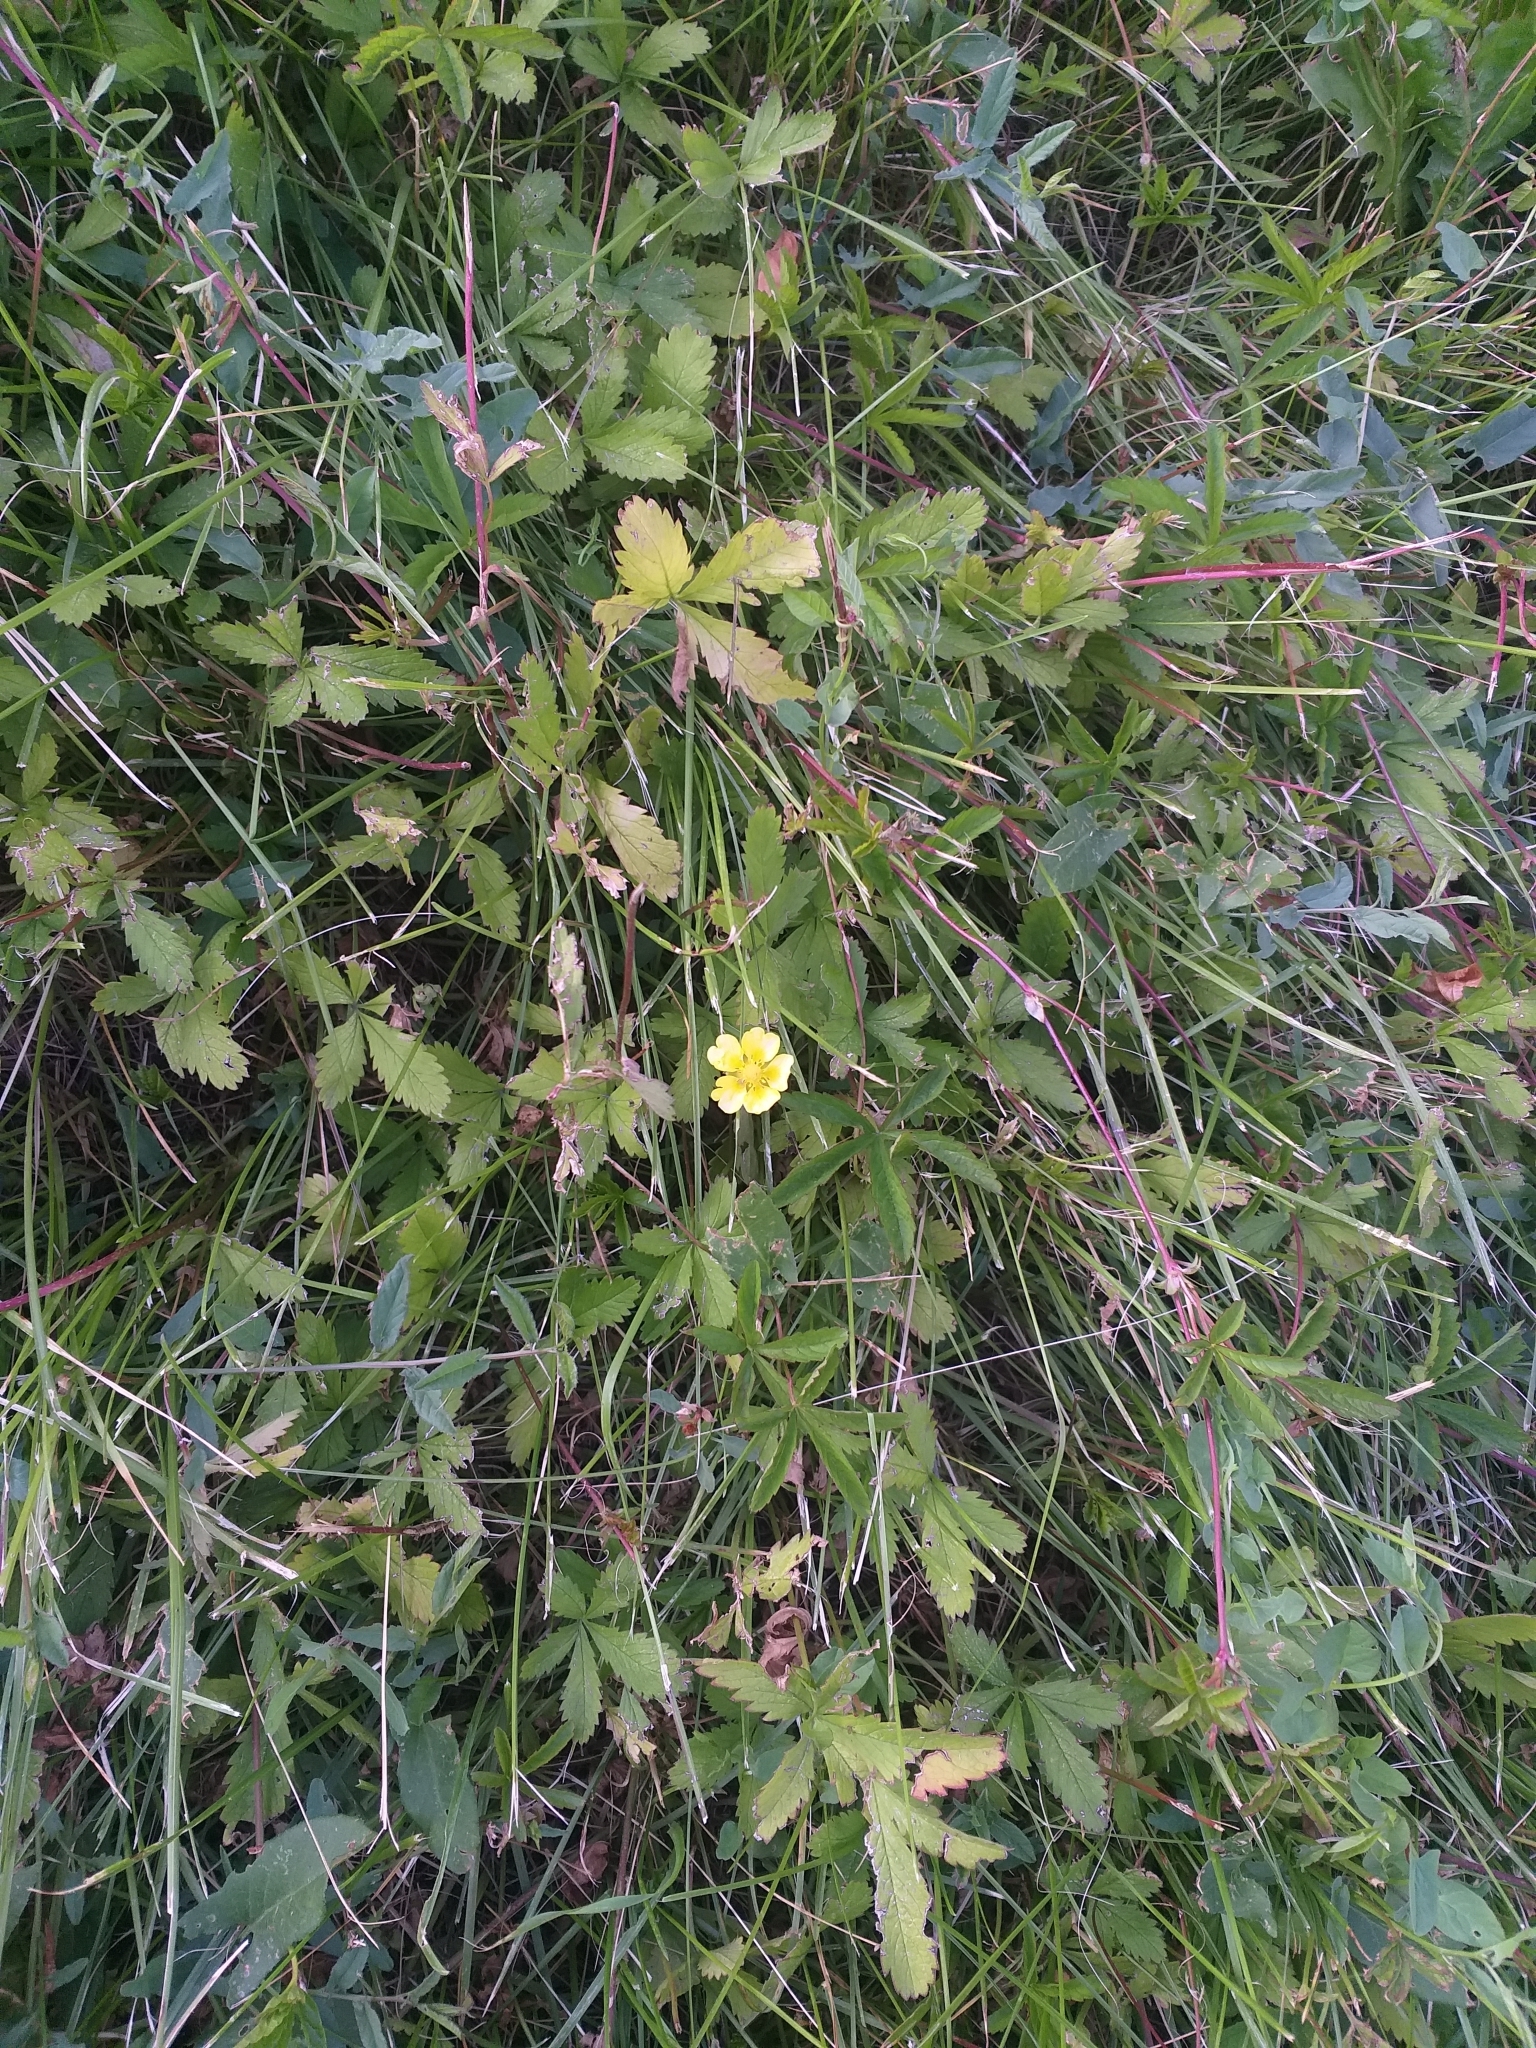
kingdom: Plantae
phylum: Tracheophyta
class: Magnoliopsida
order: Rosales
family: Rosaceae
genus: Potentilla
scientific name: Potentilla reptans
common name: Creeping cinquefoil
